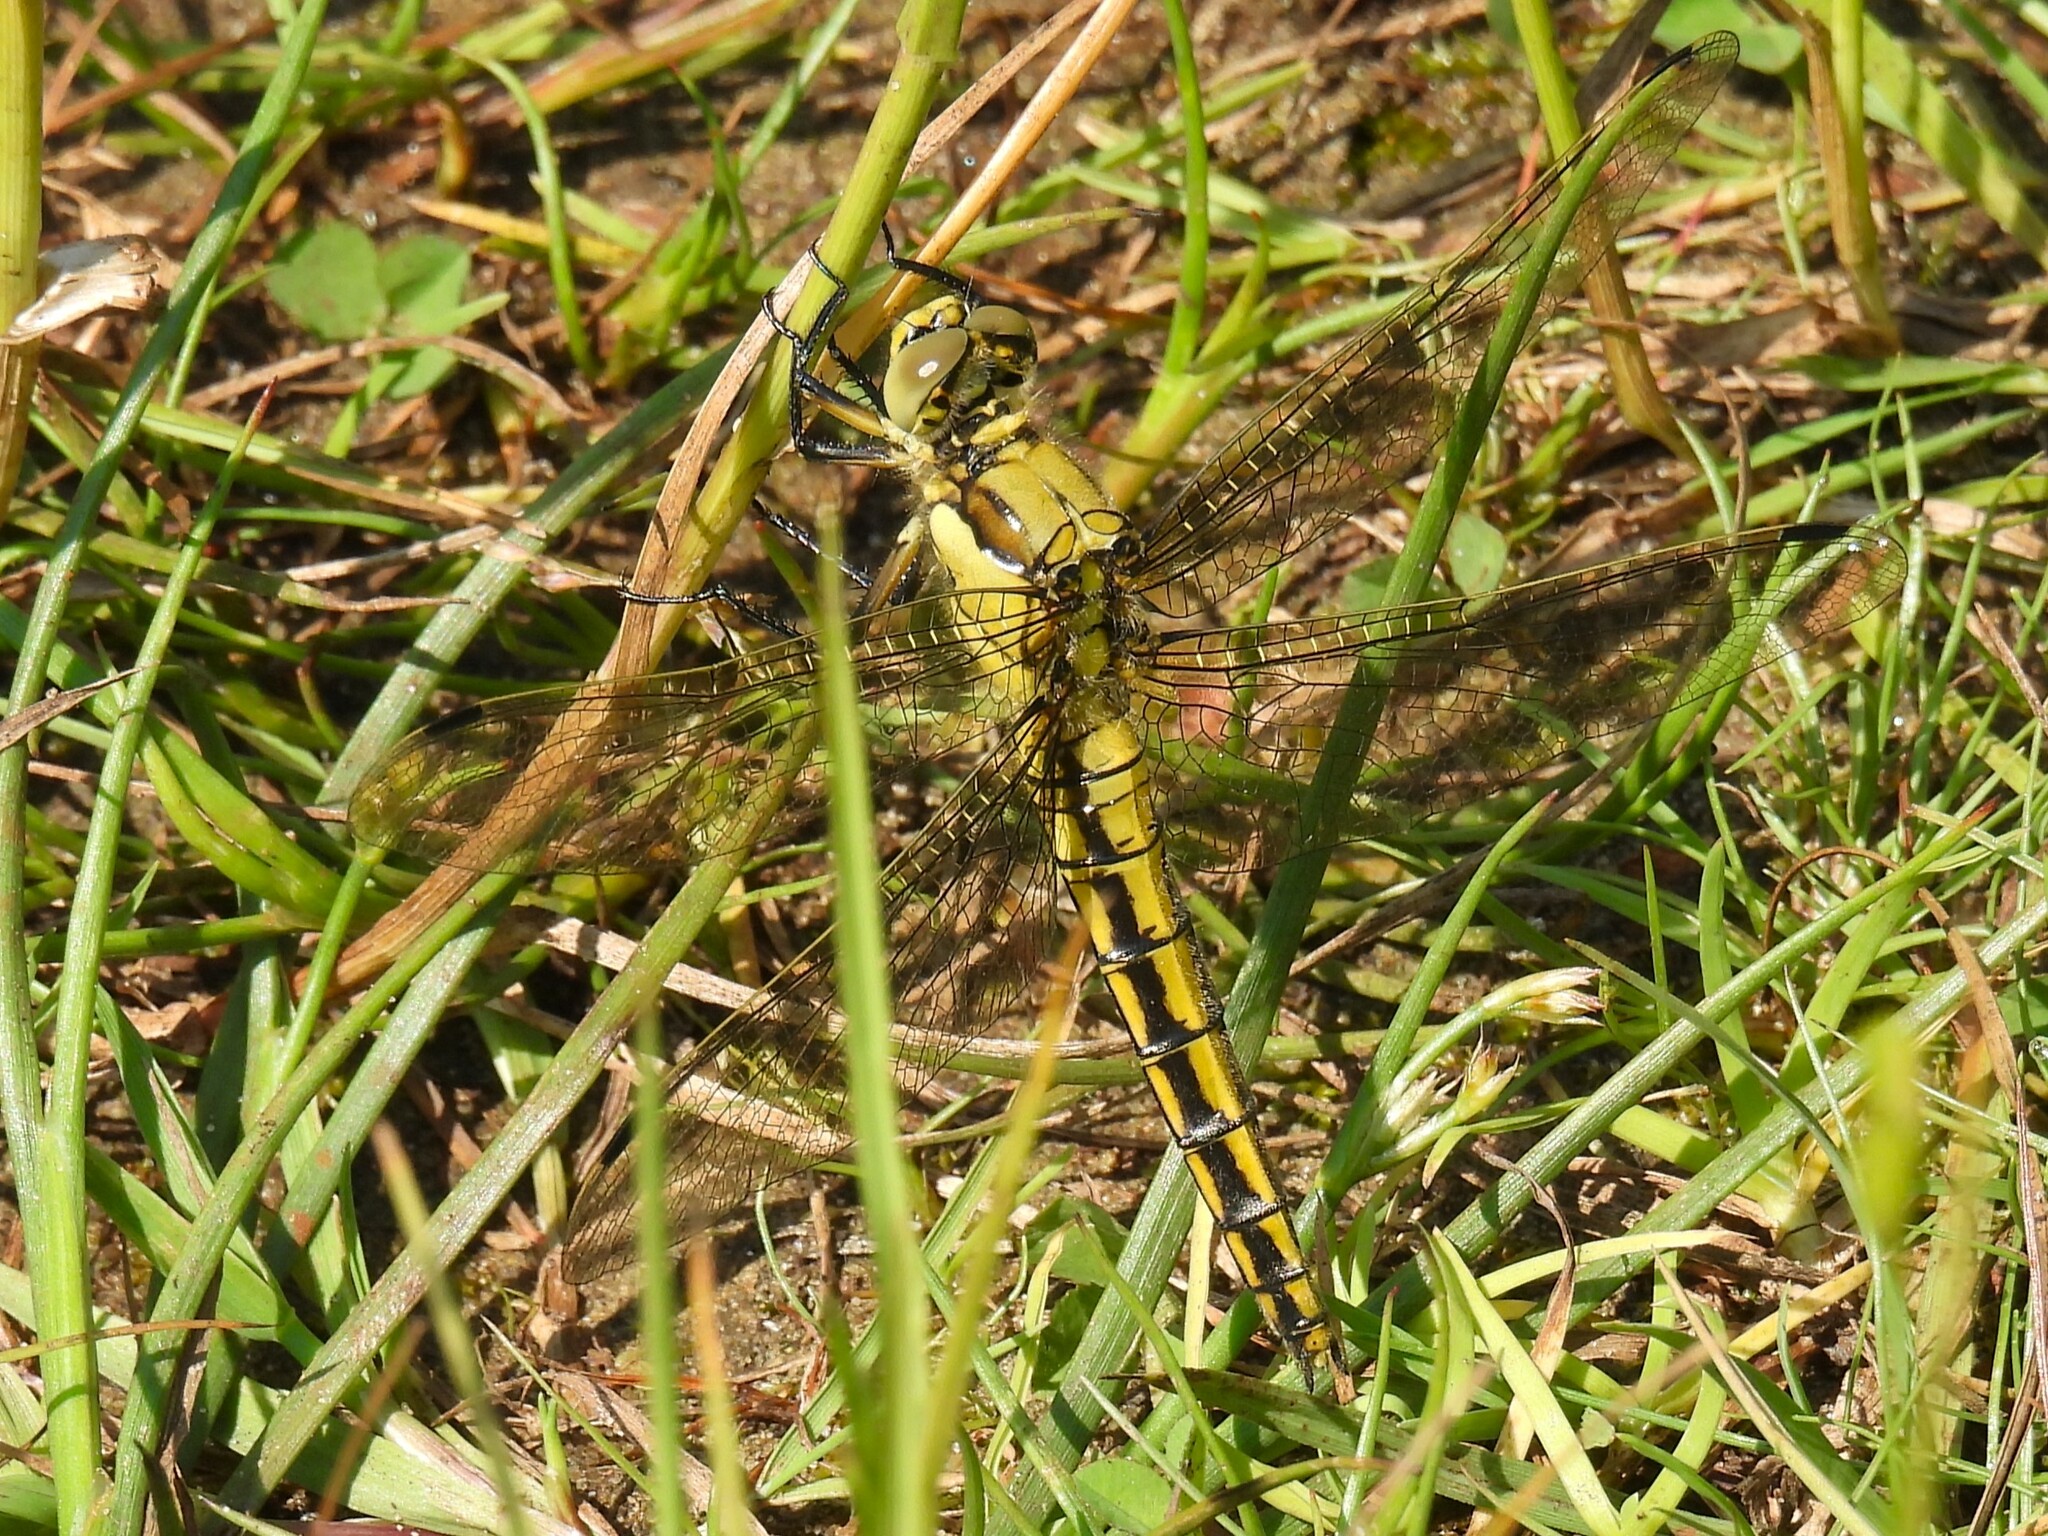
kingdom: Animalia
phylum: Arthropoda
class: Insecta
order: Odonata
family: Libellulidae
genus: Orthetrum
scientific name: Orthetrum cancellatum
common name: Black-tailed skimmer
